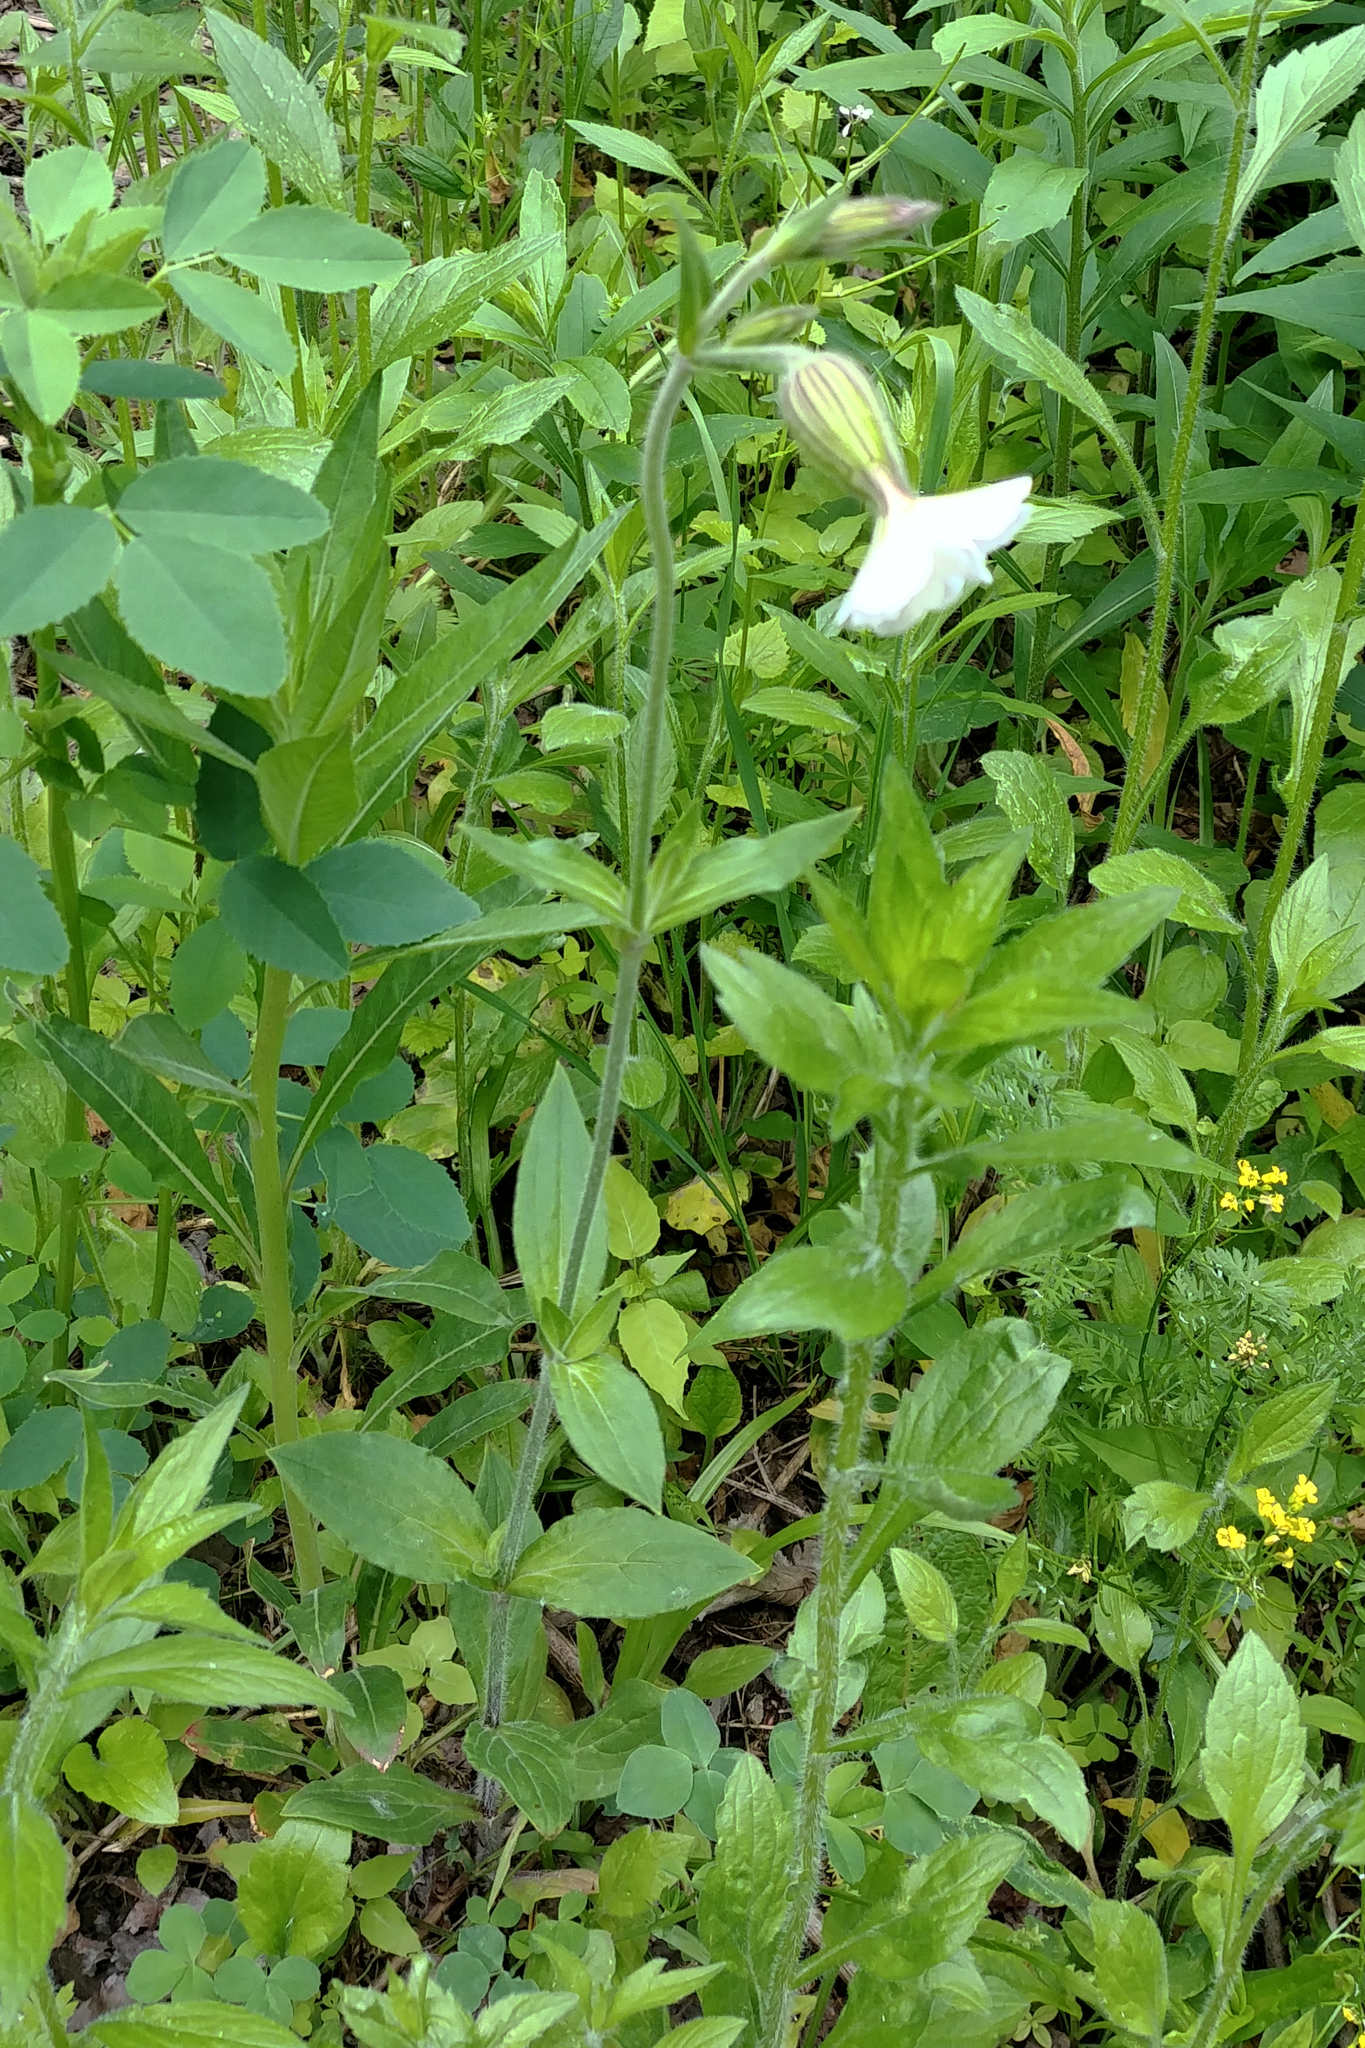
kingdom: Plantae
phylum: Tracheophyta
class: Magnoliopsida
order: Caryophyllales
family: Caryophyllaceae
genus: Silene
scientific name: Silene latifolia
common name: White campion
